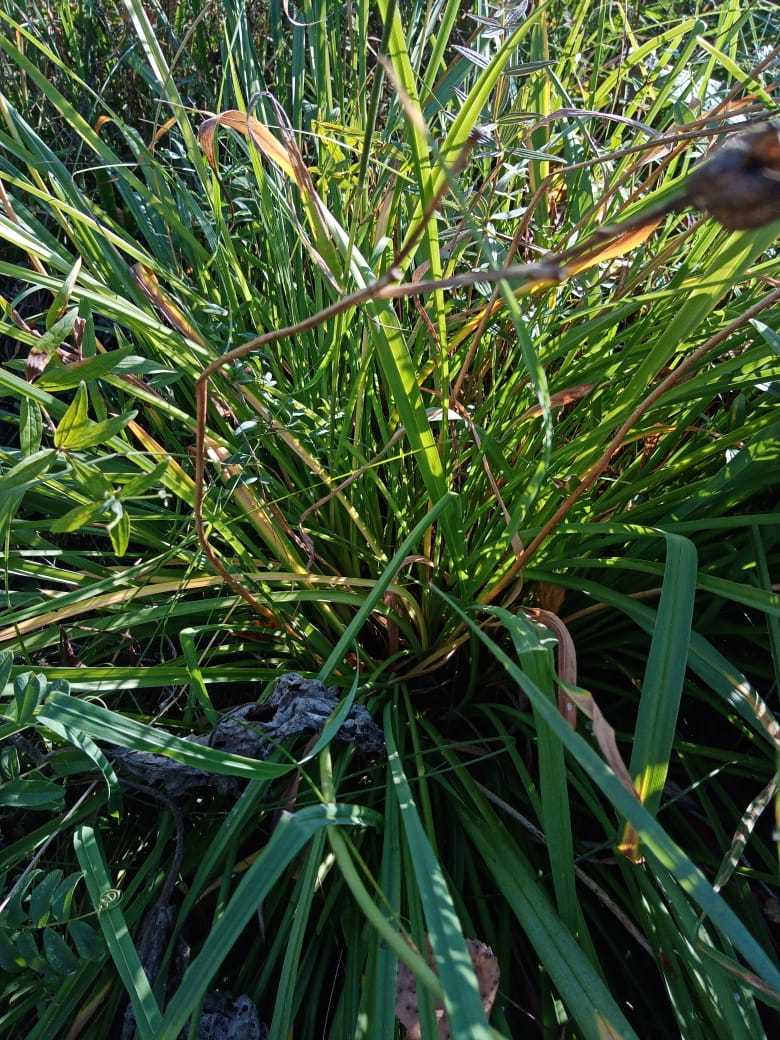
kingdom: Plantae
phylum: Tracheophyta
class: Liliopsida
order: Asparagales
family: Asphodelaceae
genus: Hemerocallis
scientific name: Hemerocallis minor
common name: Small daylily
